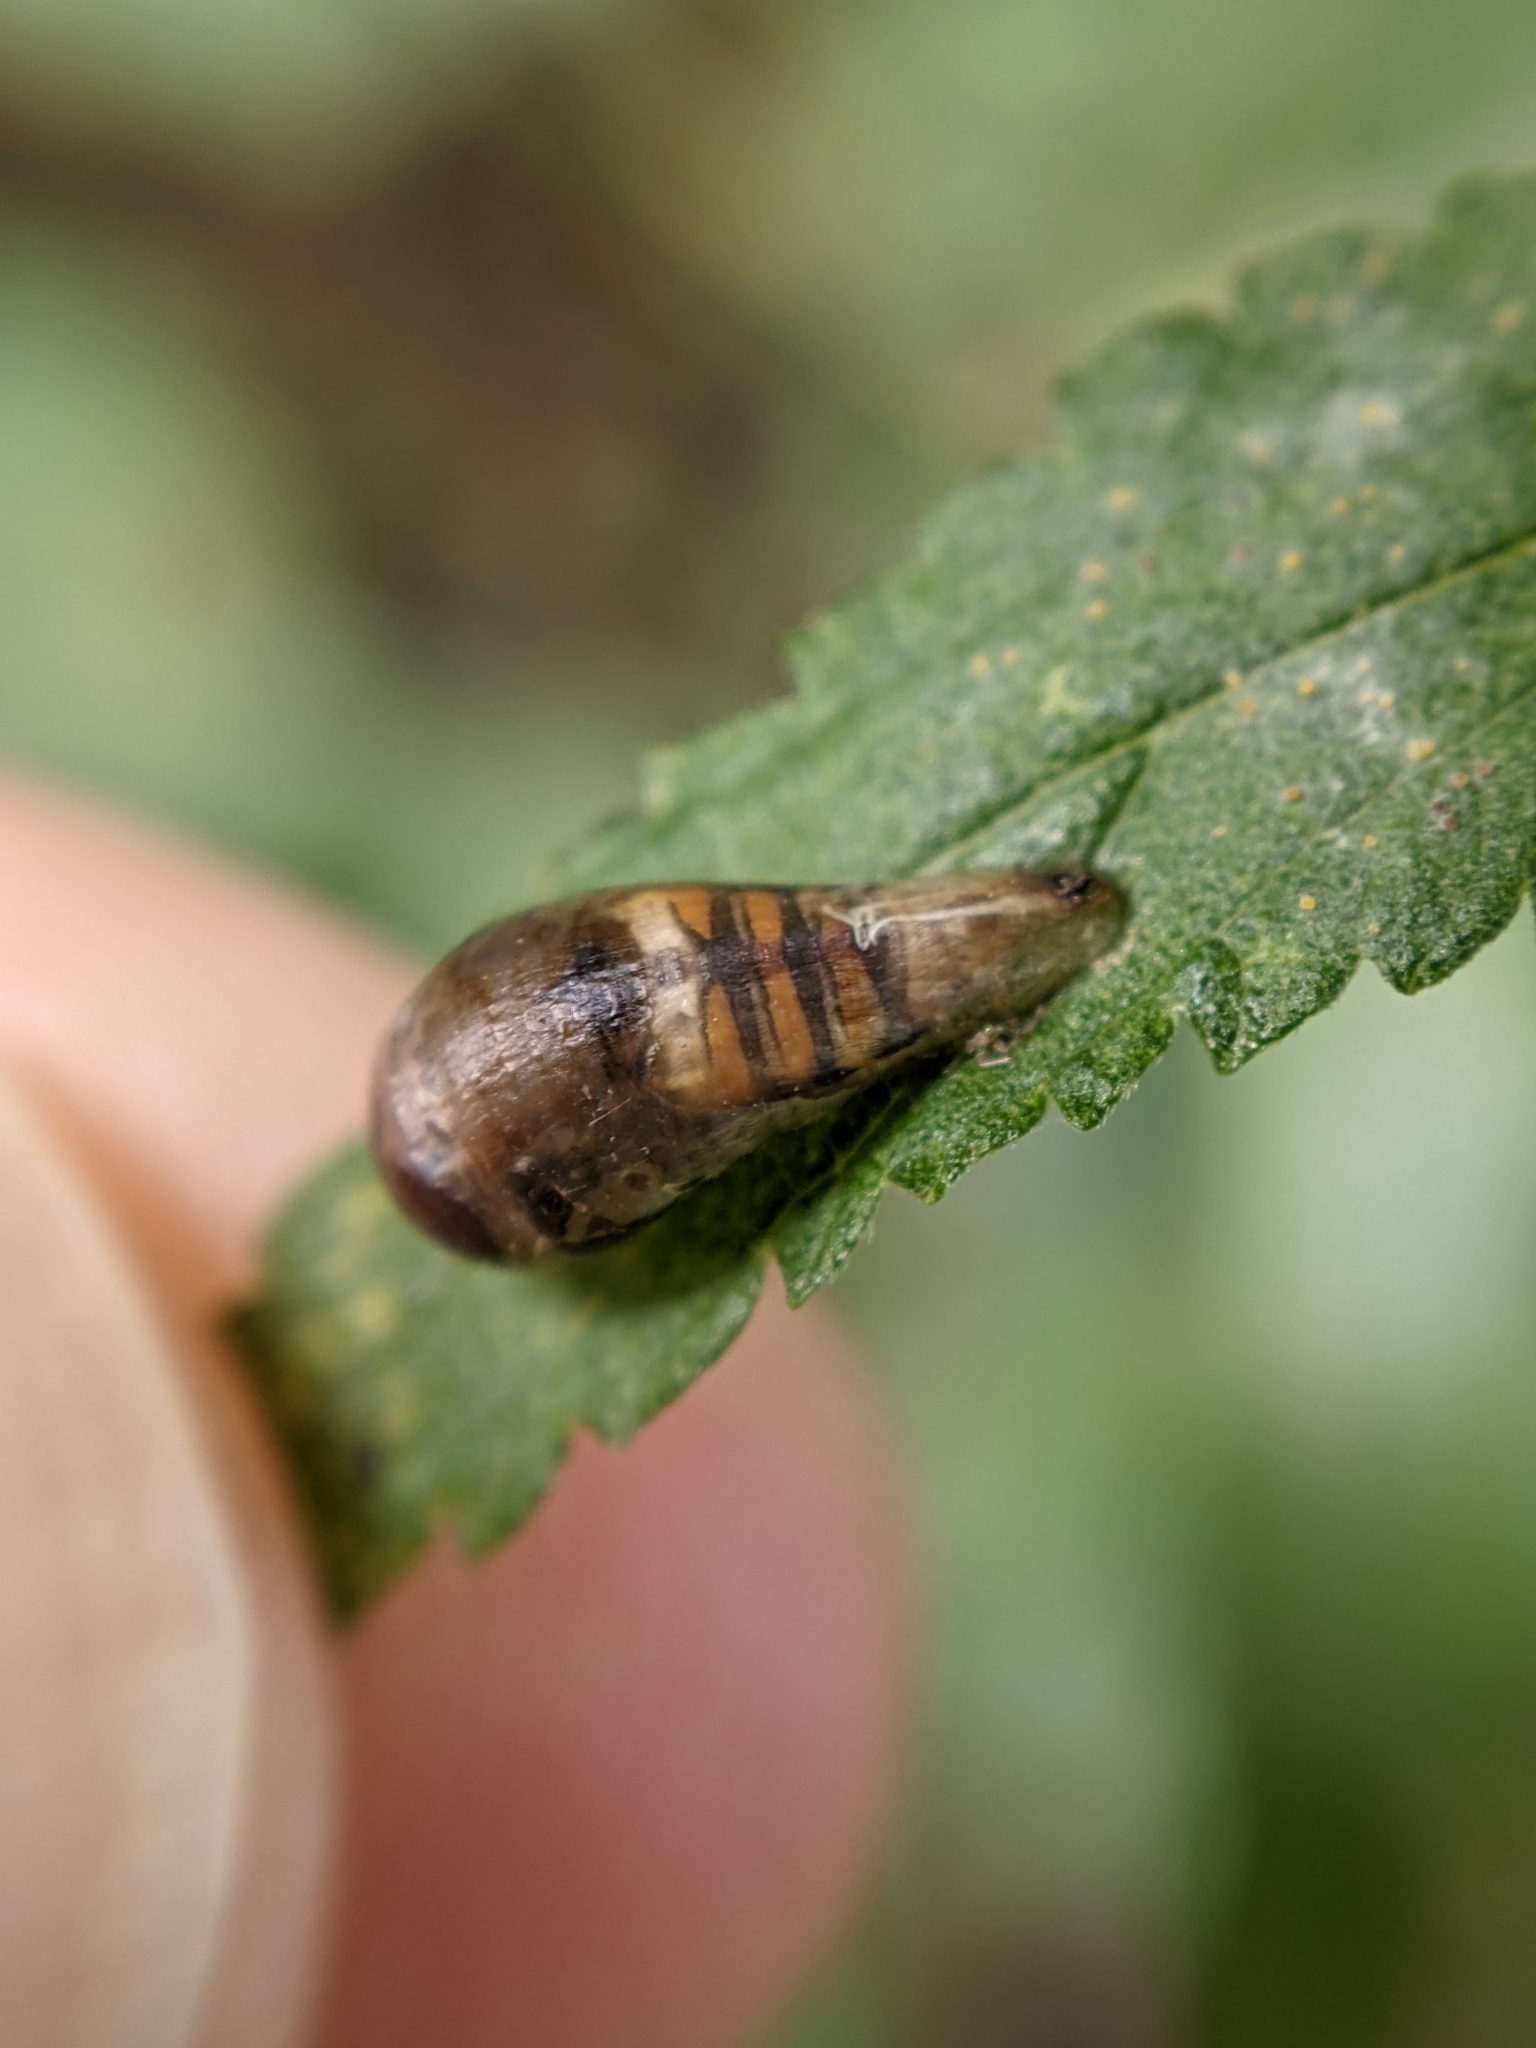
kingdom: Animalia
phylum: Arthropoda
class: Insecta
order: Diptera
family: Syrphidae
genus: Episyrphus
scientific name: Episyrphus balteatus
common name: Marmalade hoverfly
